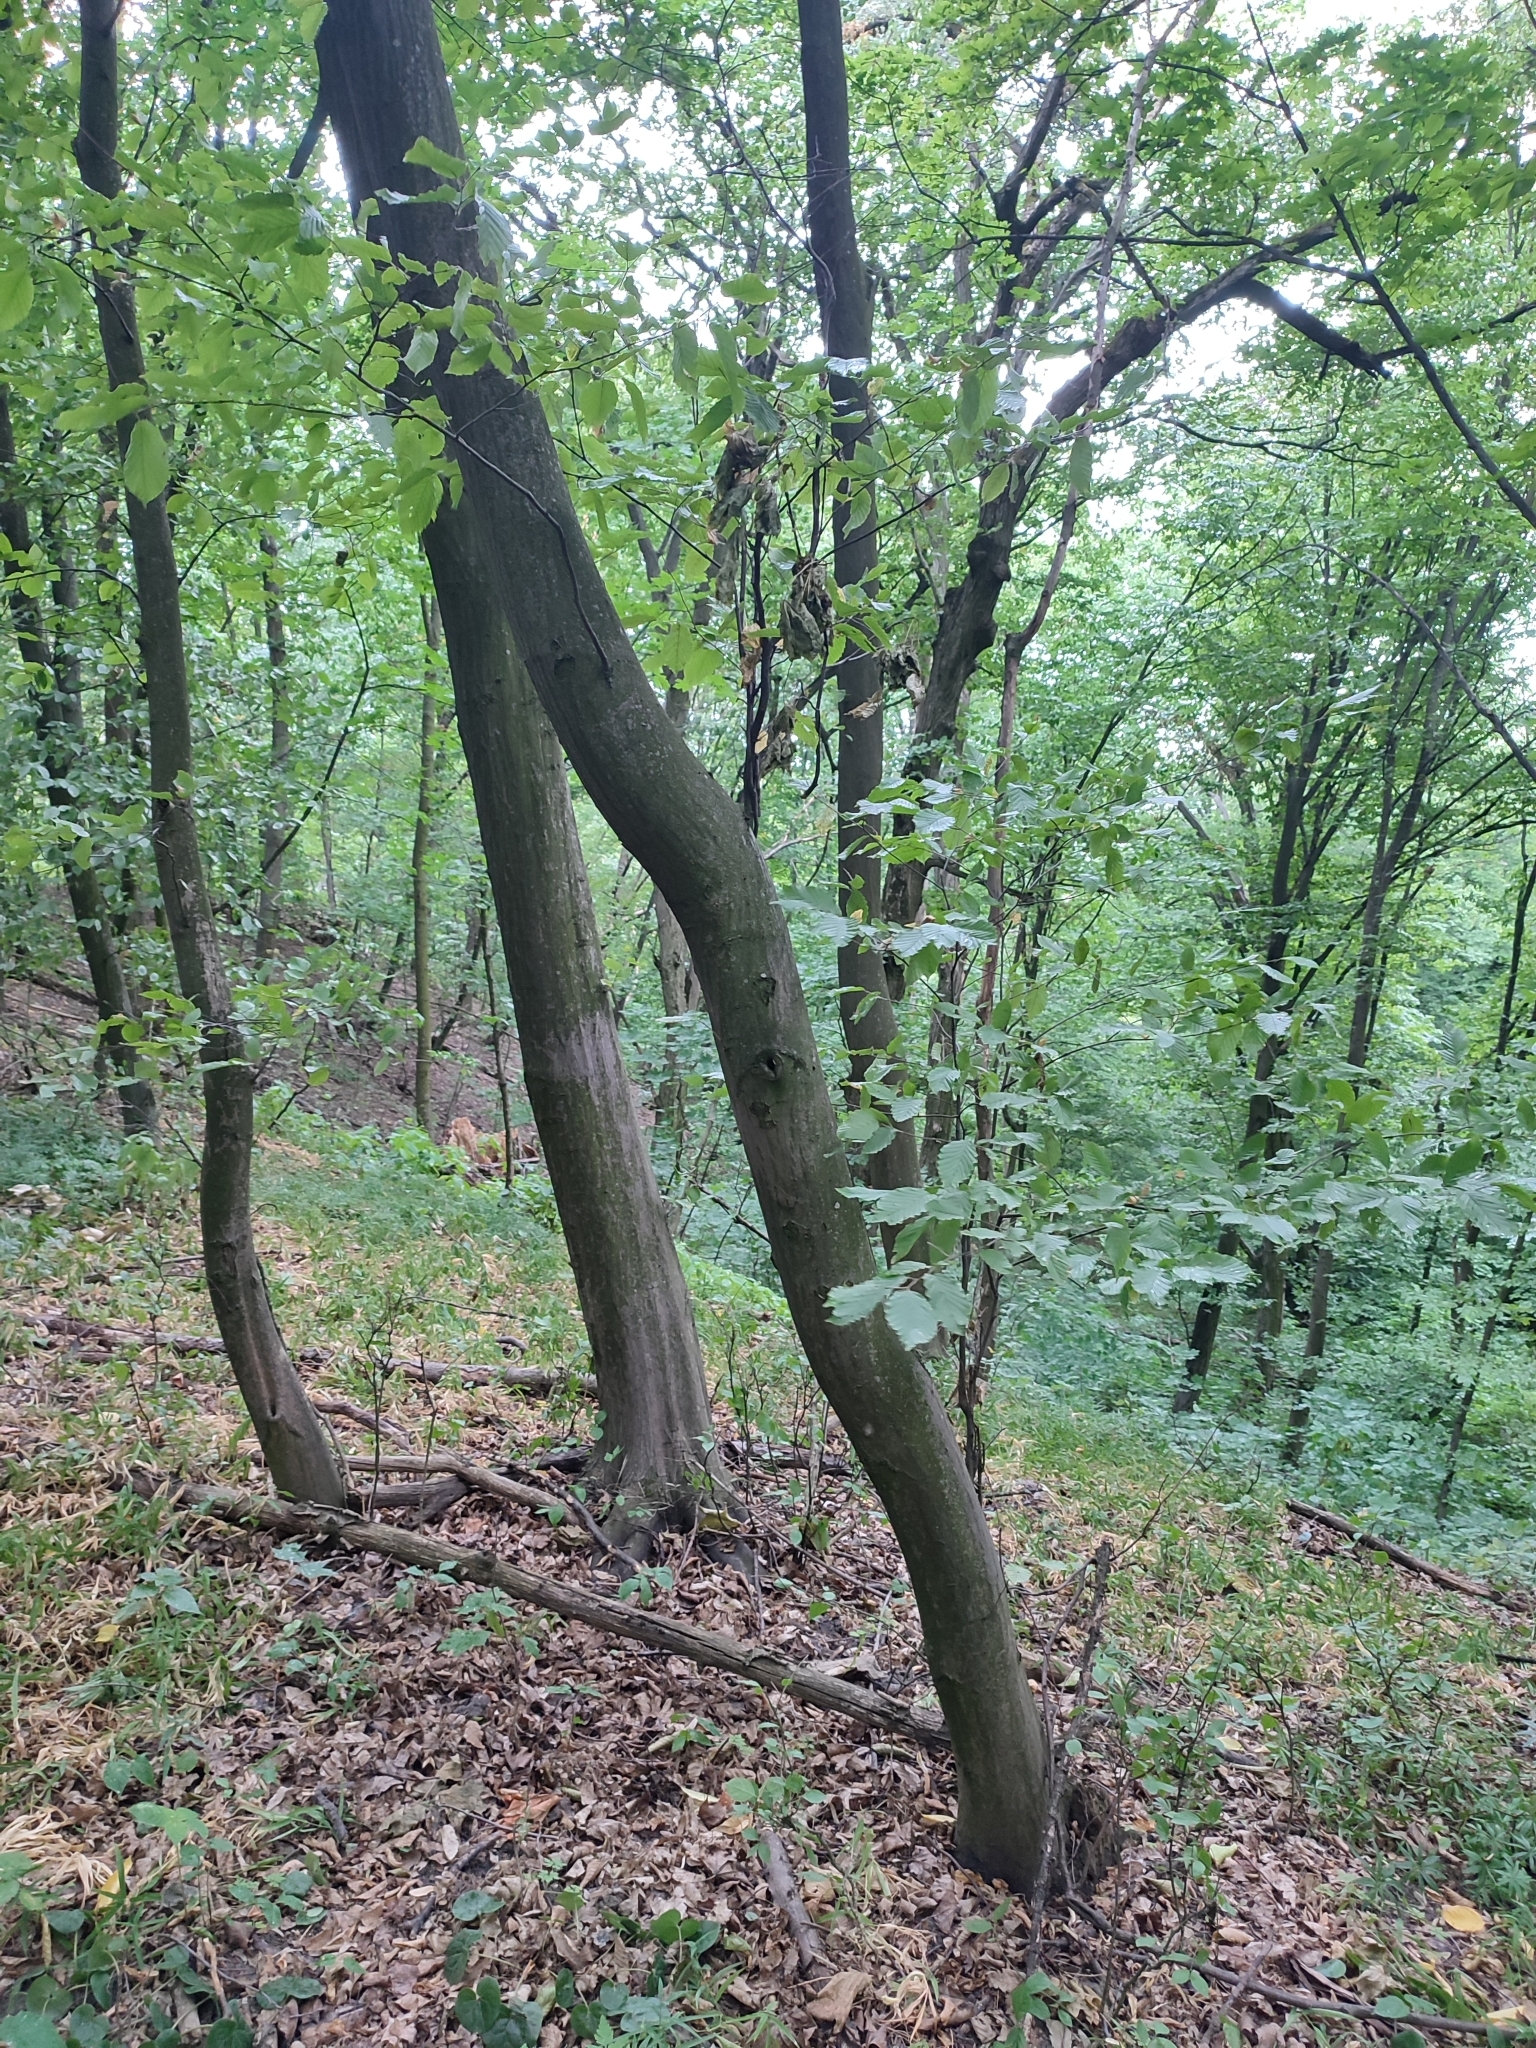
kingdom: Plantae
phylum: Tracheophyta
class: Magnoliopsida
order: Fagales
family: Betulaceae
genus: Carpinus
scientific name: Carpinus betulus
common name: Hornbeam
